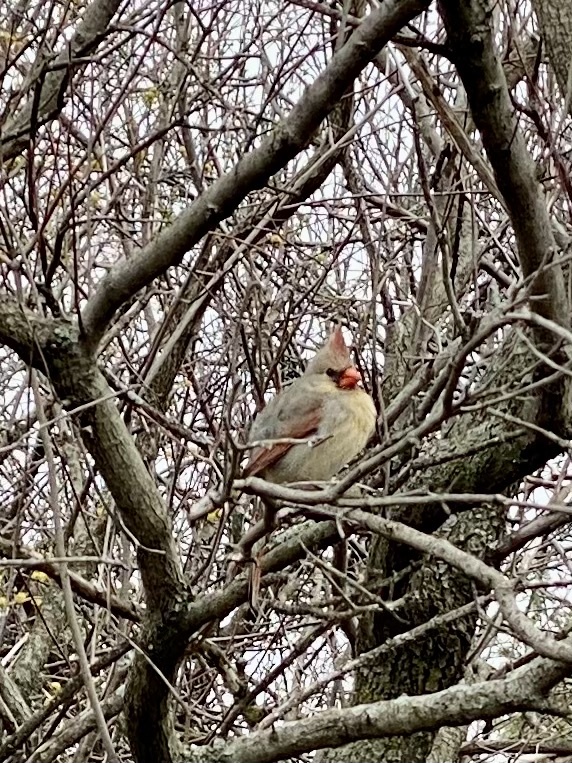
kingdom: Animalia
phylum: Chordata
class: Aves
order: Passeriformes
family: Cardinalidae
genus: Cardinalis
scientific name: Cardinalis cardinalis
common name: Northern cardinal
